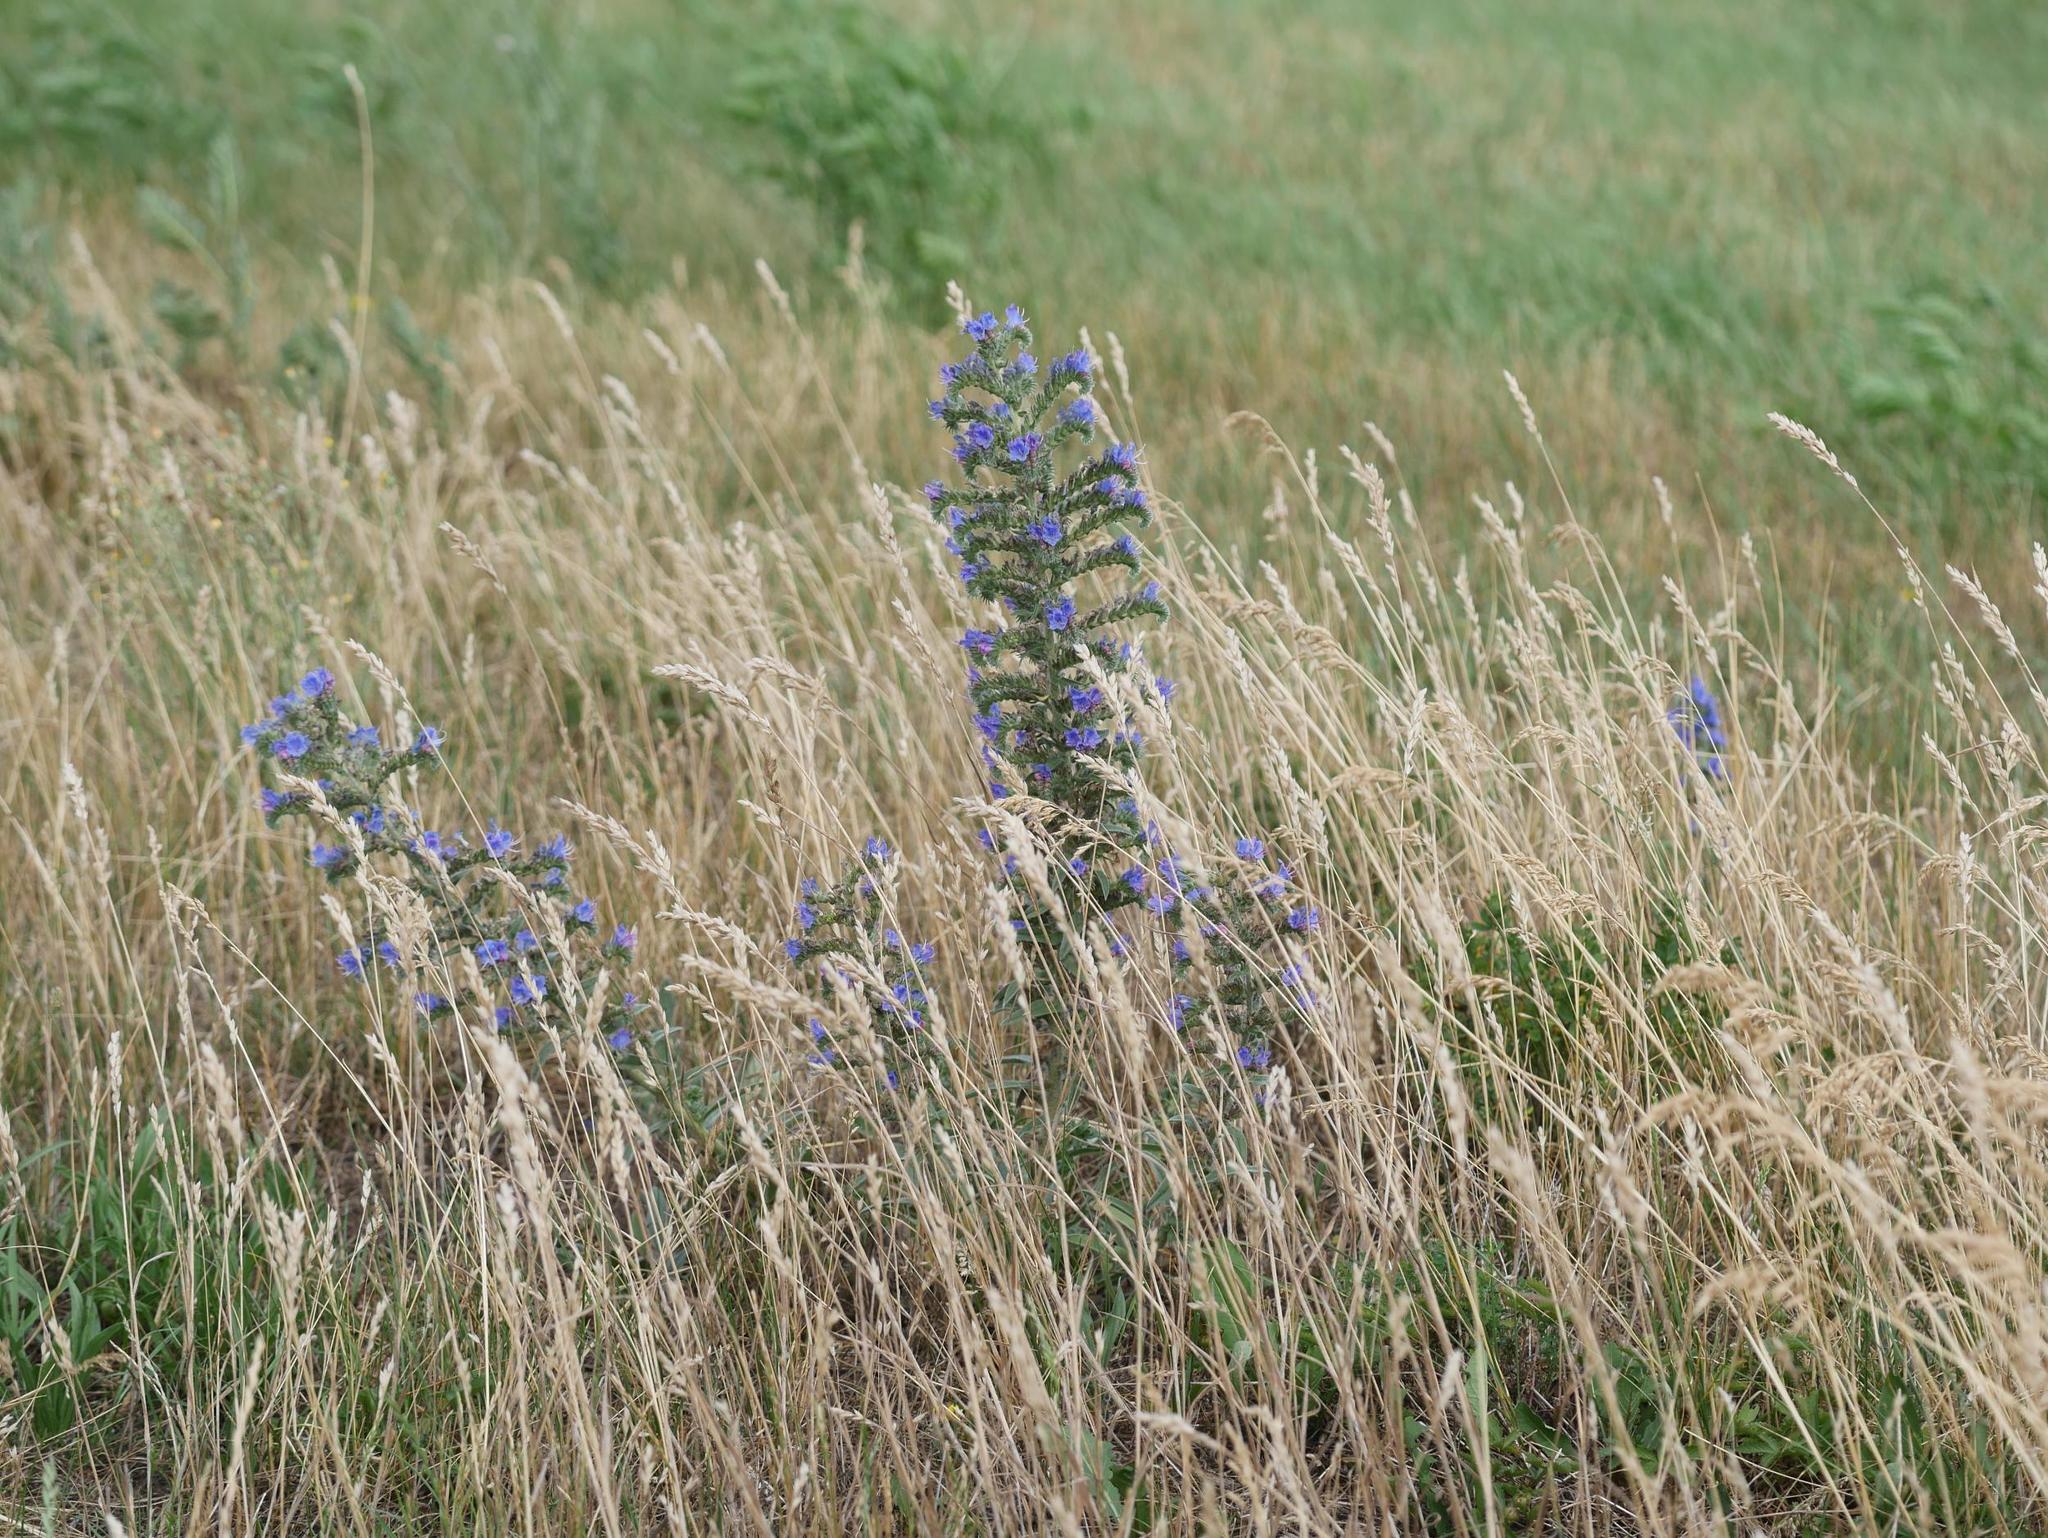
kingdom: Plantae
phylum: Tracheophyta
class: Magnoliopsida
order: Boraginales
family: Boraginaceae
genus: Echium
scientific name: Echium vulgare
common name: Common viper's bugloss
